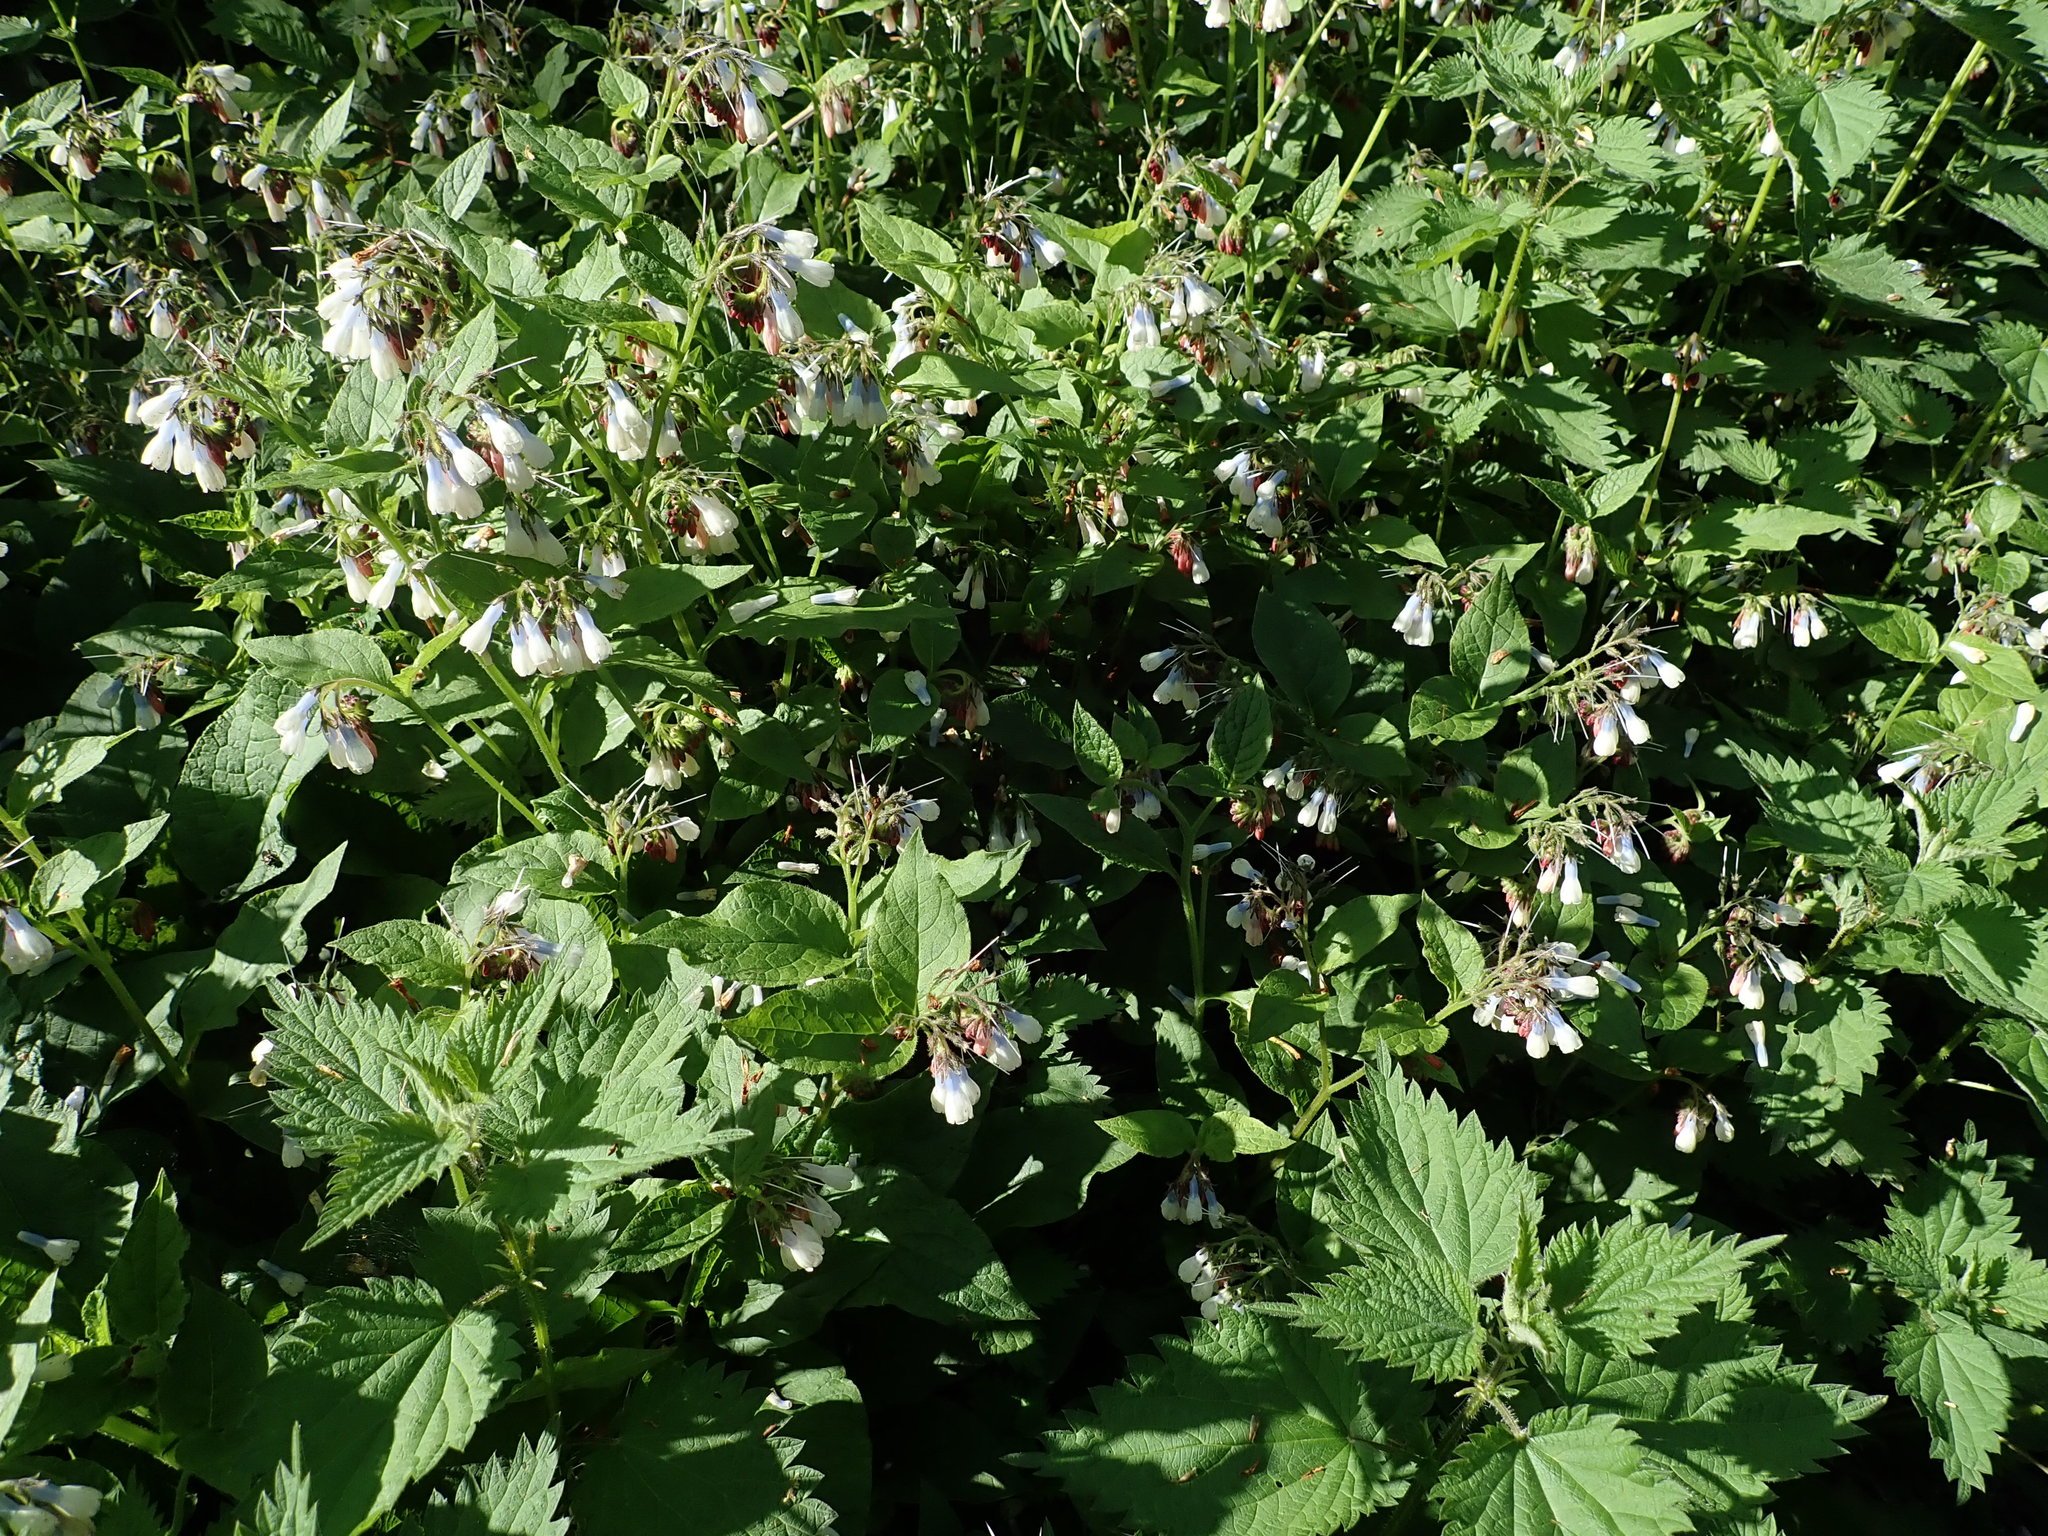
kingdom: Plantae
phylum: Tracheophyta
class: Magnoliopsida
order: Boraginales
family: Boraginaceae
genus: Symphytum
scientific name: Symphytum hidcotense
